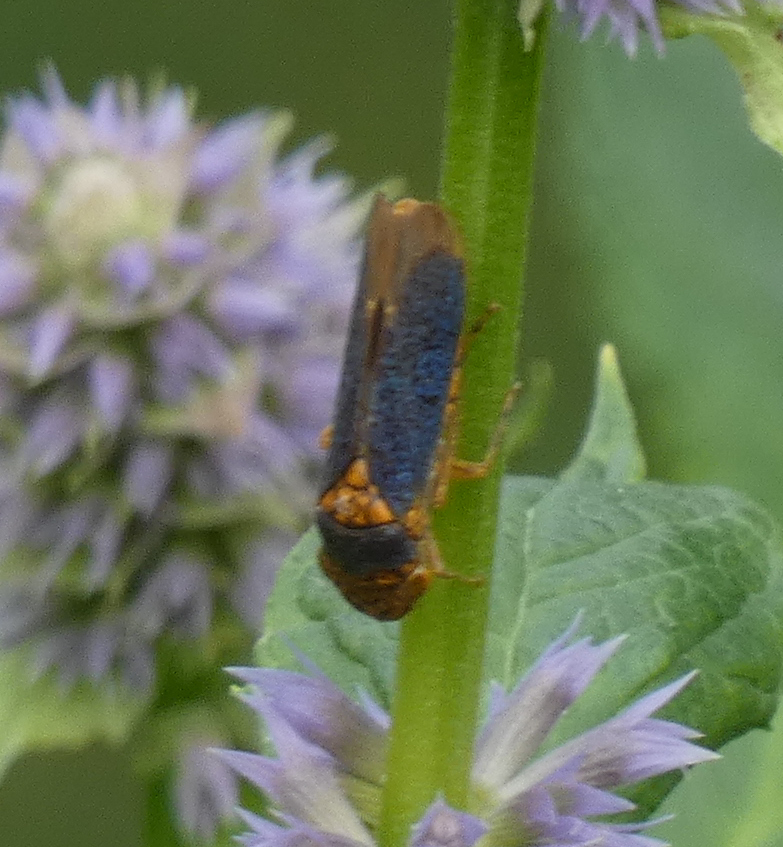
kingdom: Animalia
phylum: Arthropoda
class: Insecta
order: Hemiptera
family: Cicadellidae
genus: Oncometopia
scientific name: Oncometopia orbona
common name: Broad-headed sharpshooter
